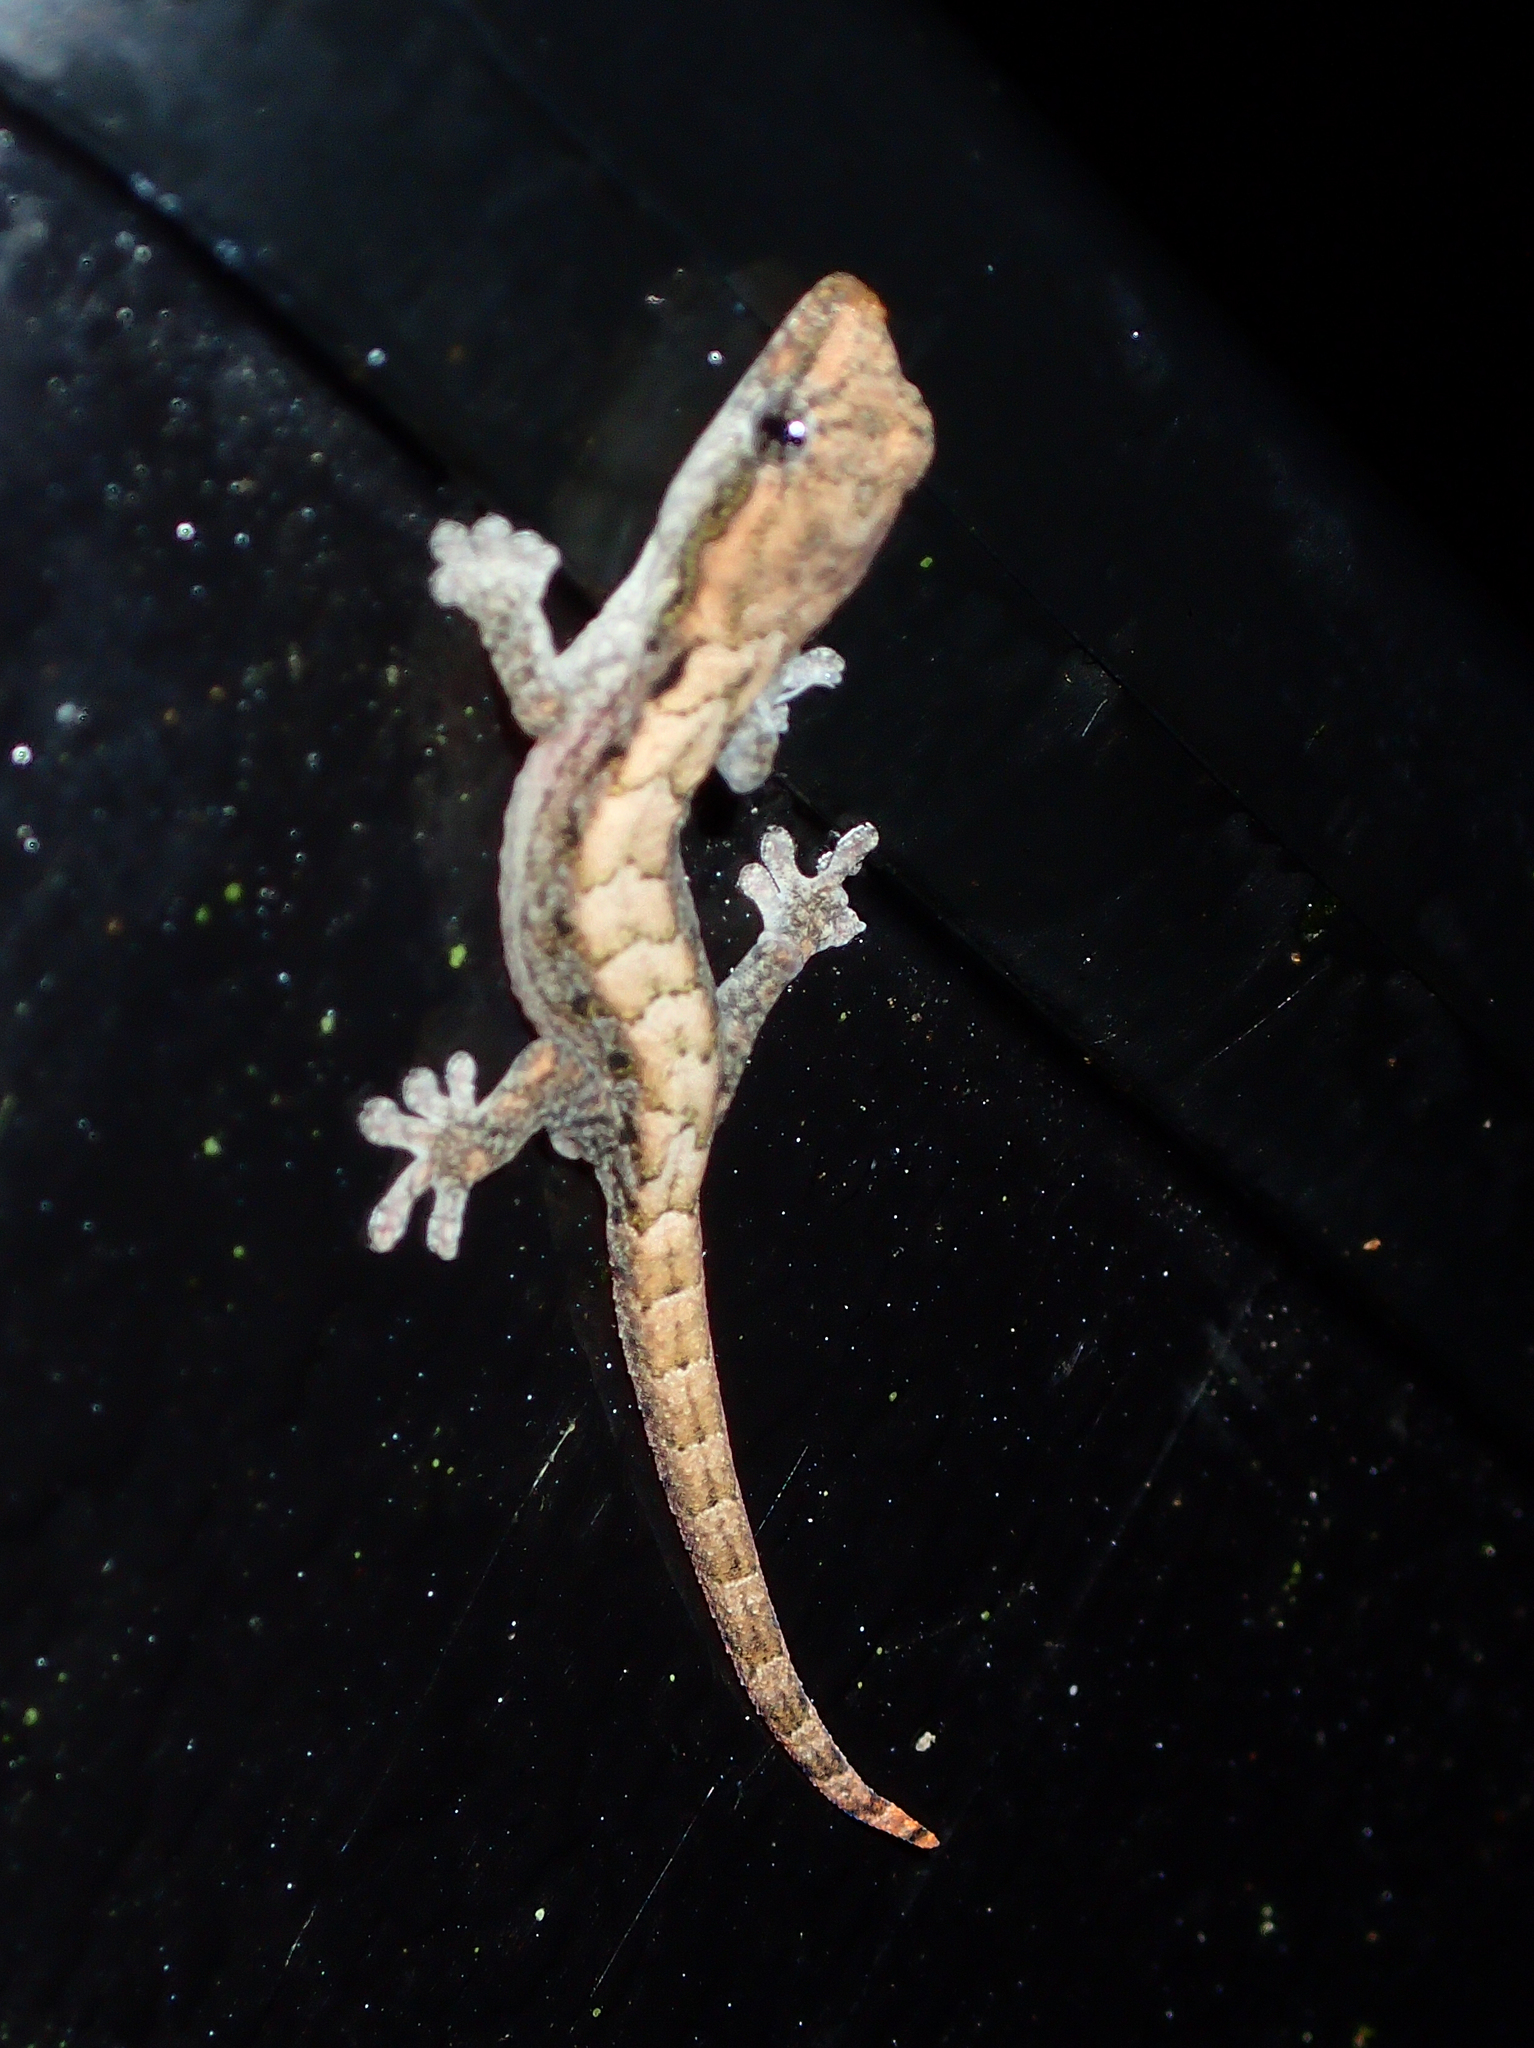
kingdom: Animalia
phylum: Chordata
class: Squamata
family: Gekkonidae
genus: Lepidodactylus
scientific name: Lepidodactylus lugubris
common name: Mourning gecko
